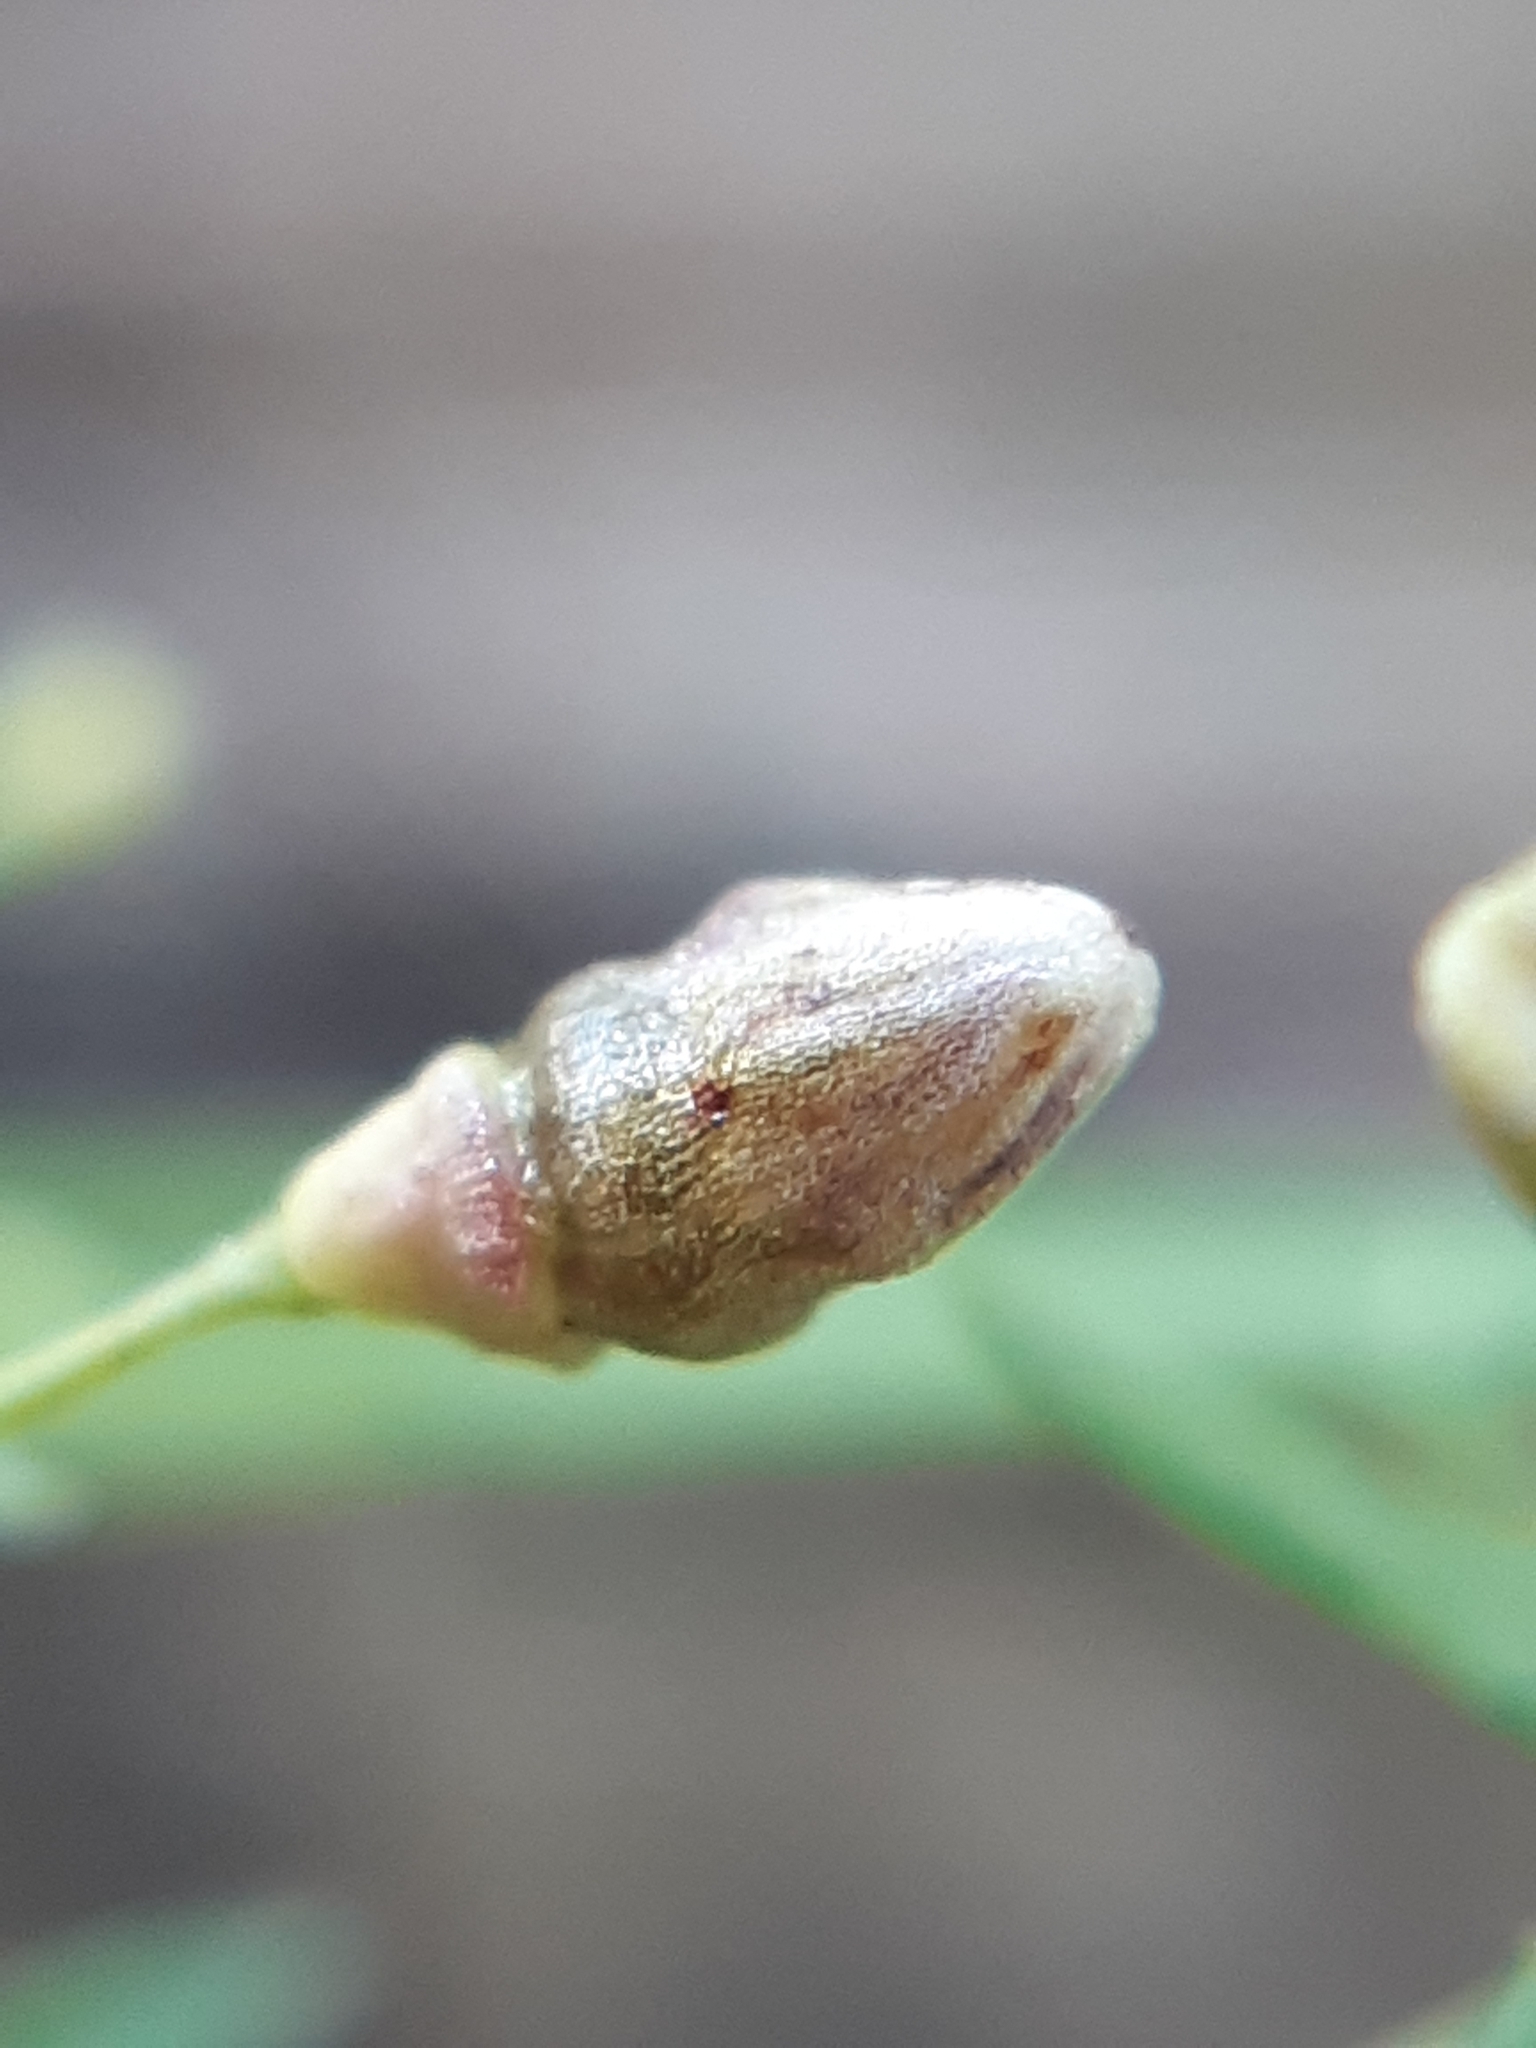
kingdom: Animalia
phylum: Arthropoda
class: Insecta
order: Diptera
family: Cecidomyiidae
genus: Schizomyia
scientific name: Schizomyia galiorum
